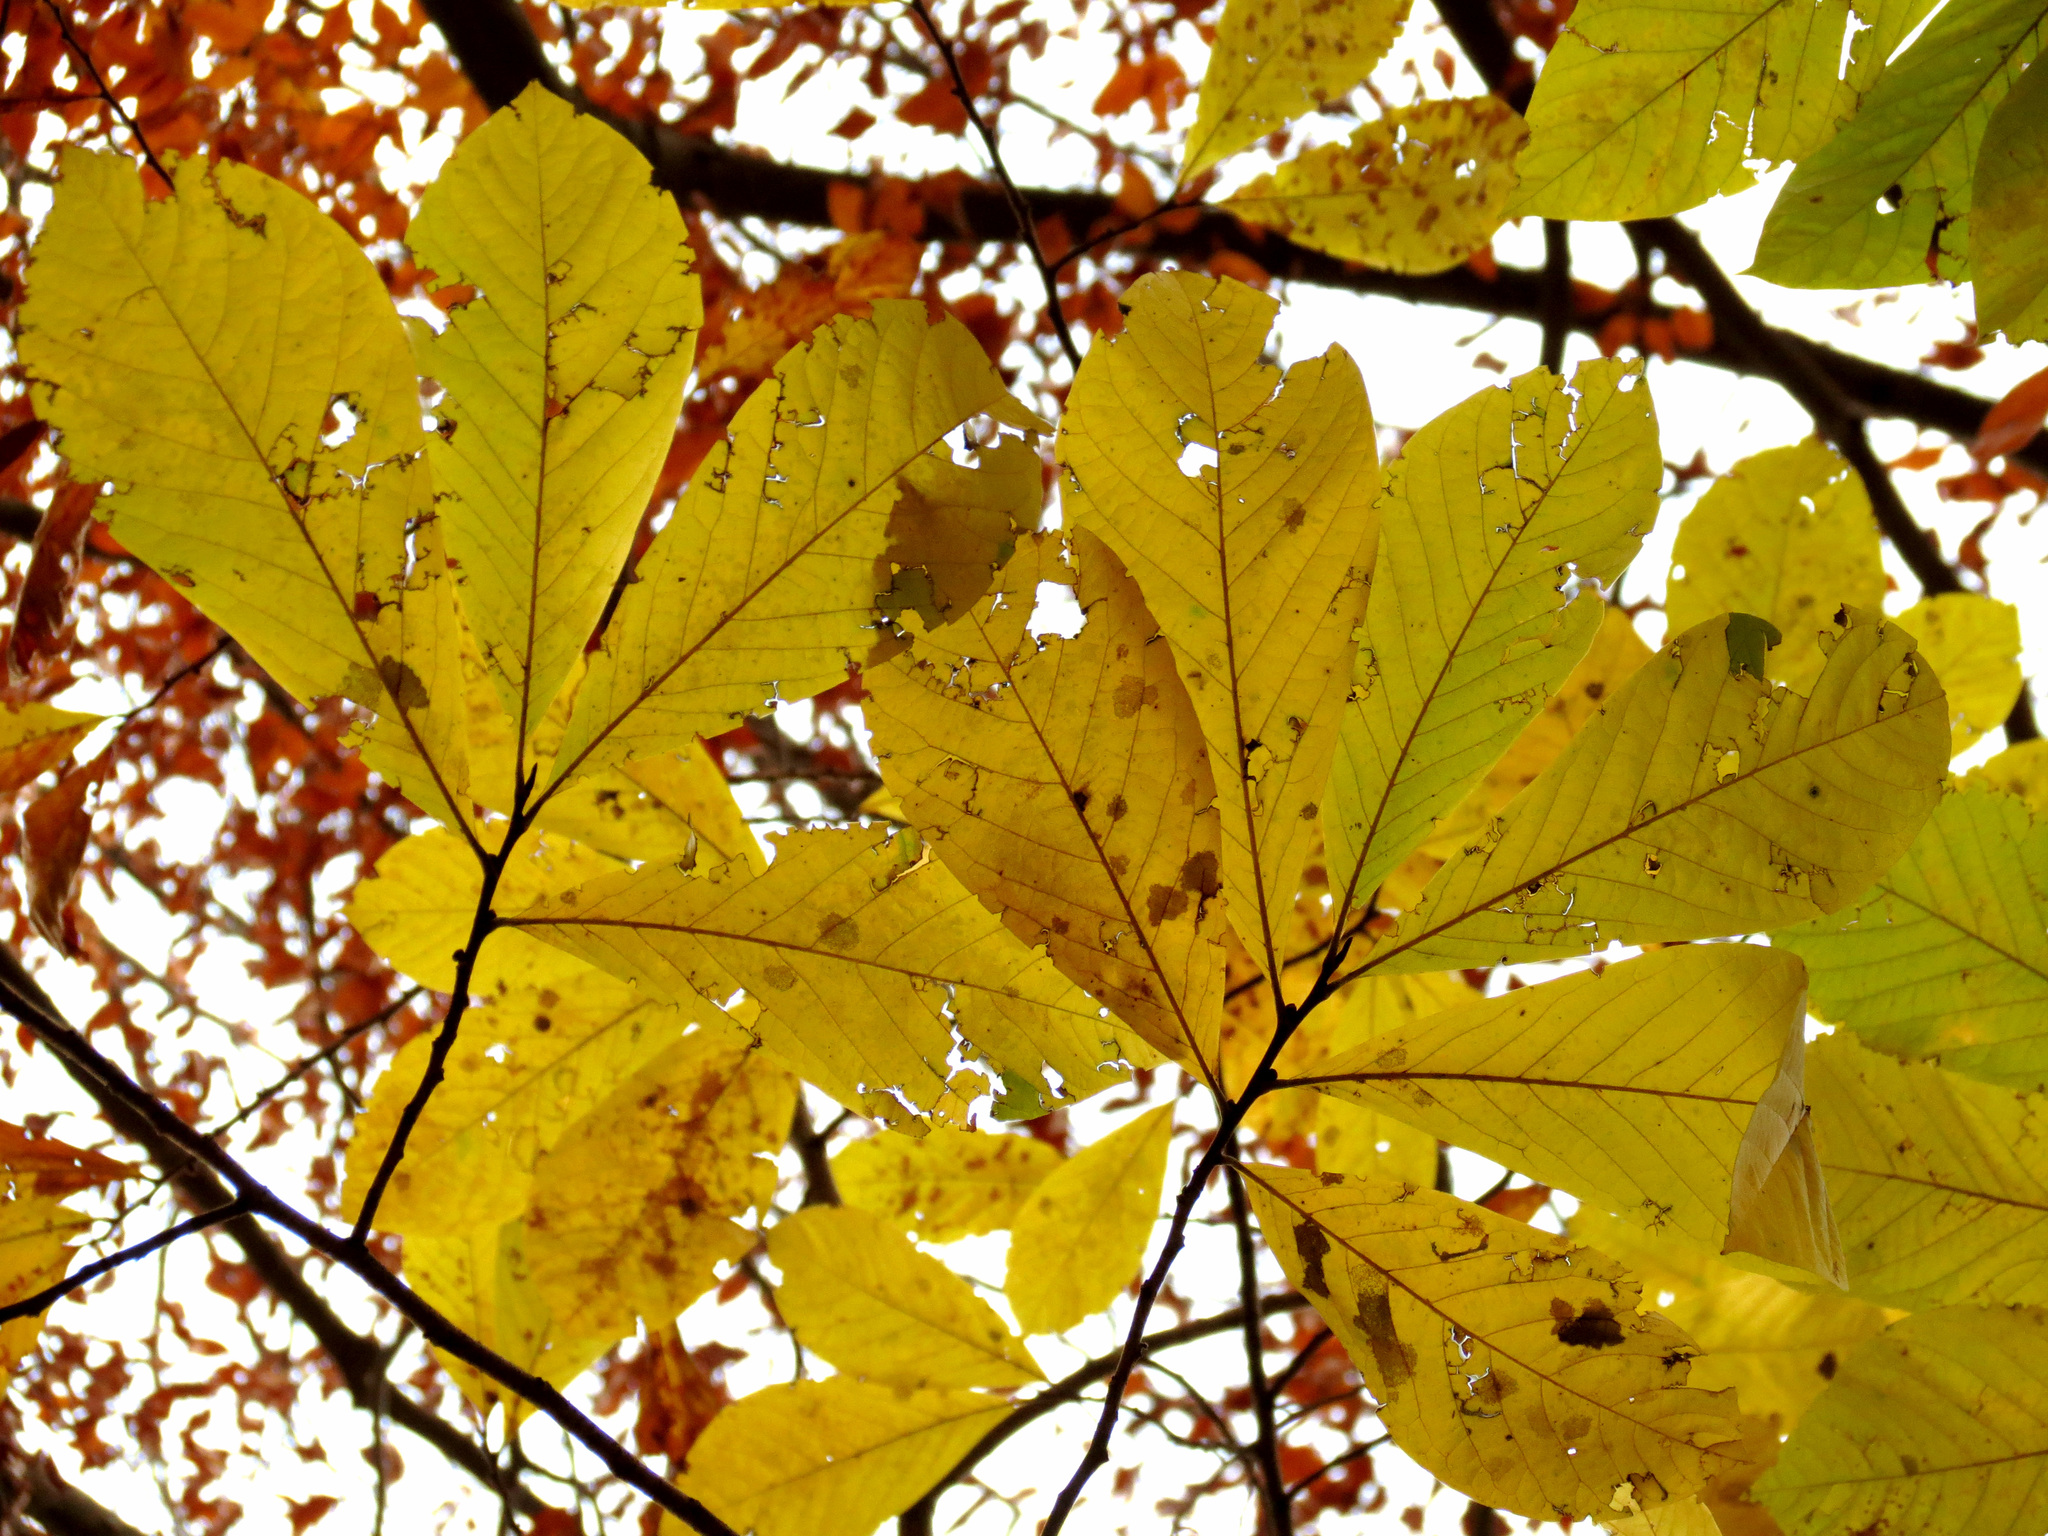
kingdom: Plantae
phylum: Tracheophyta
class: Magnoliopsida
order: Magnoliales
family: Annonaceae
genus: Asimina
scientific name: Asimina triloba
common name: Dog-banana
